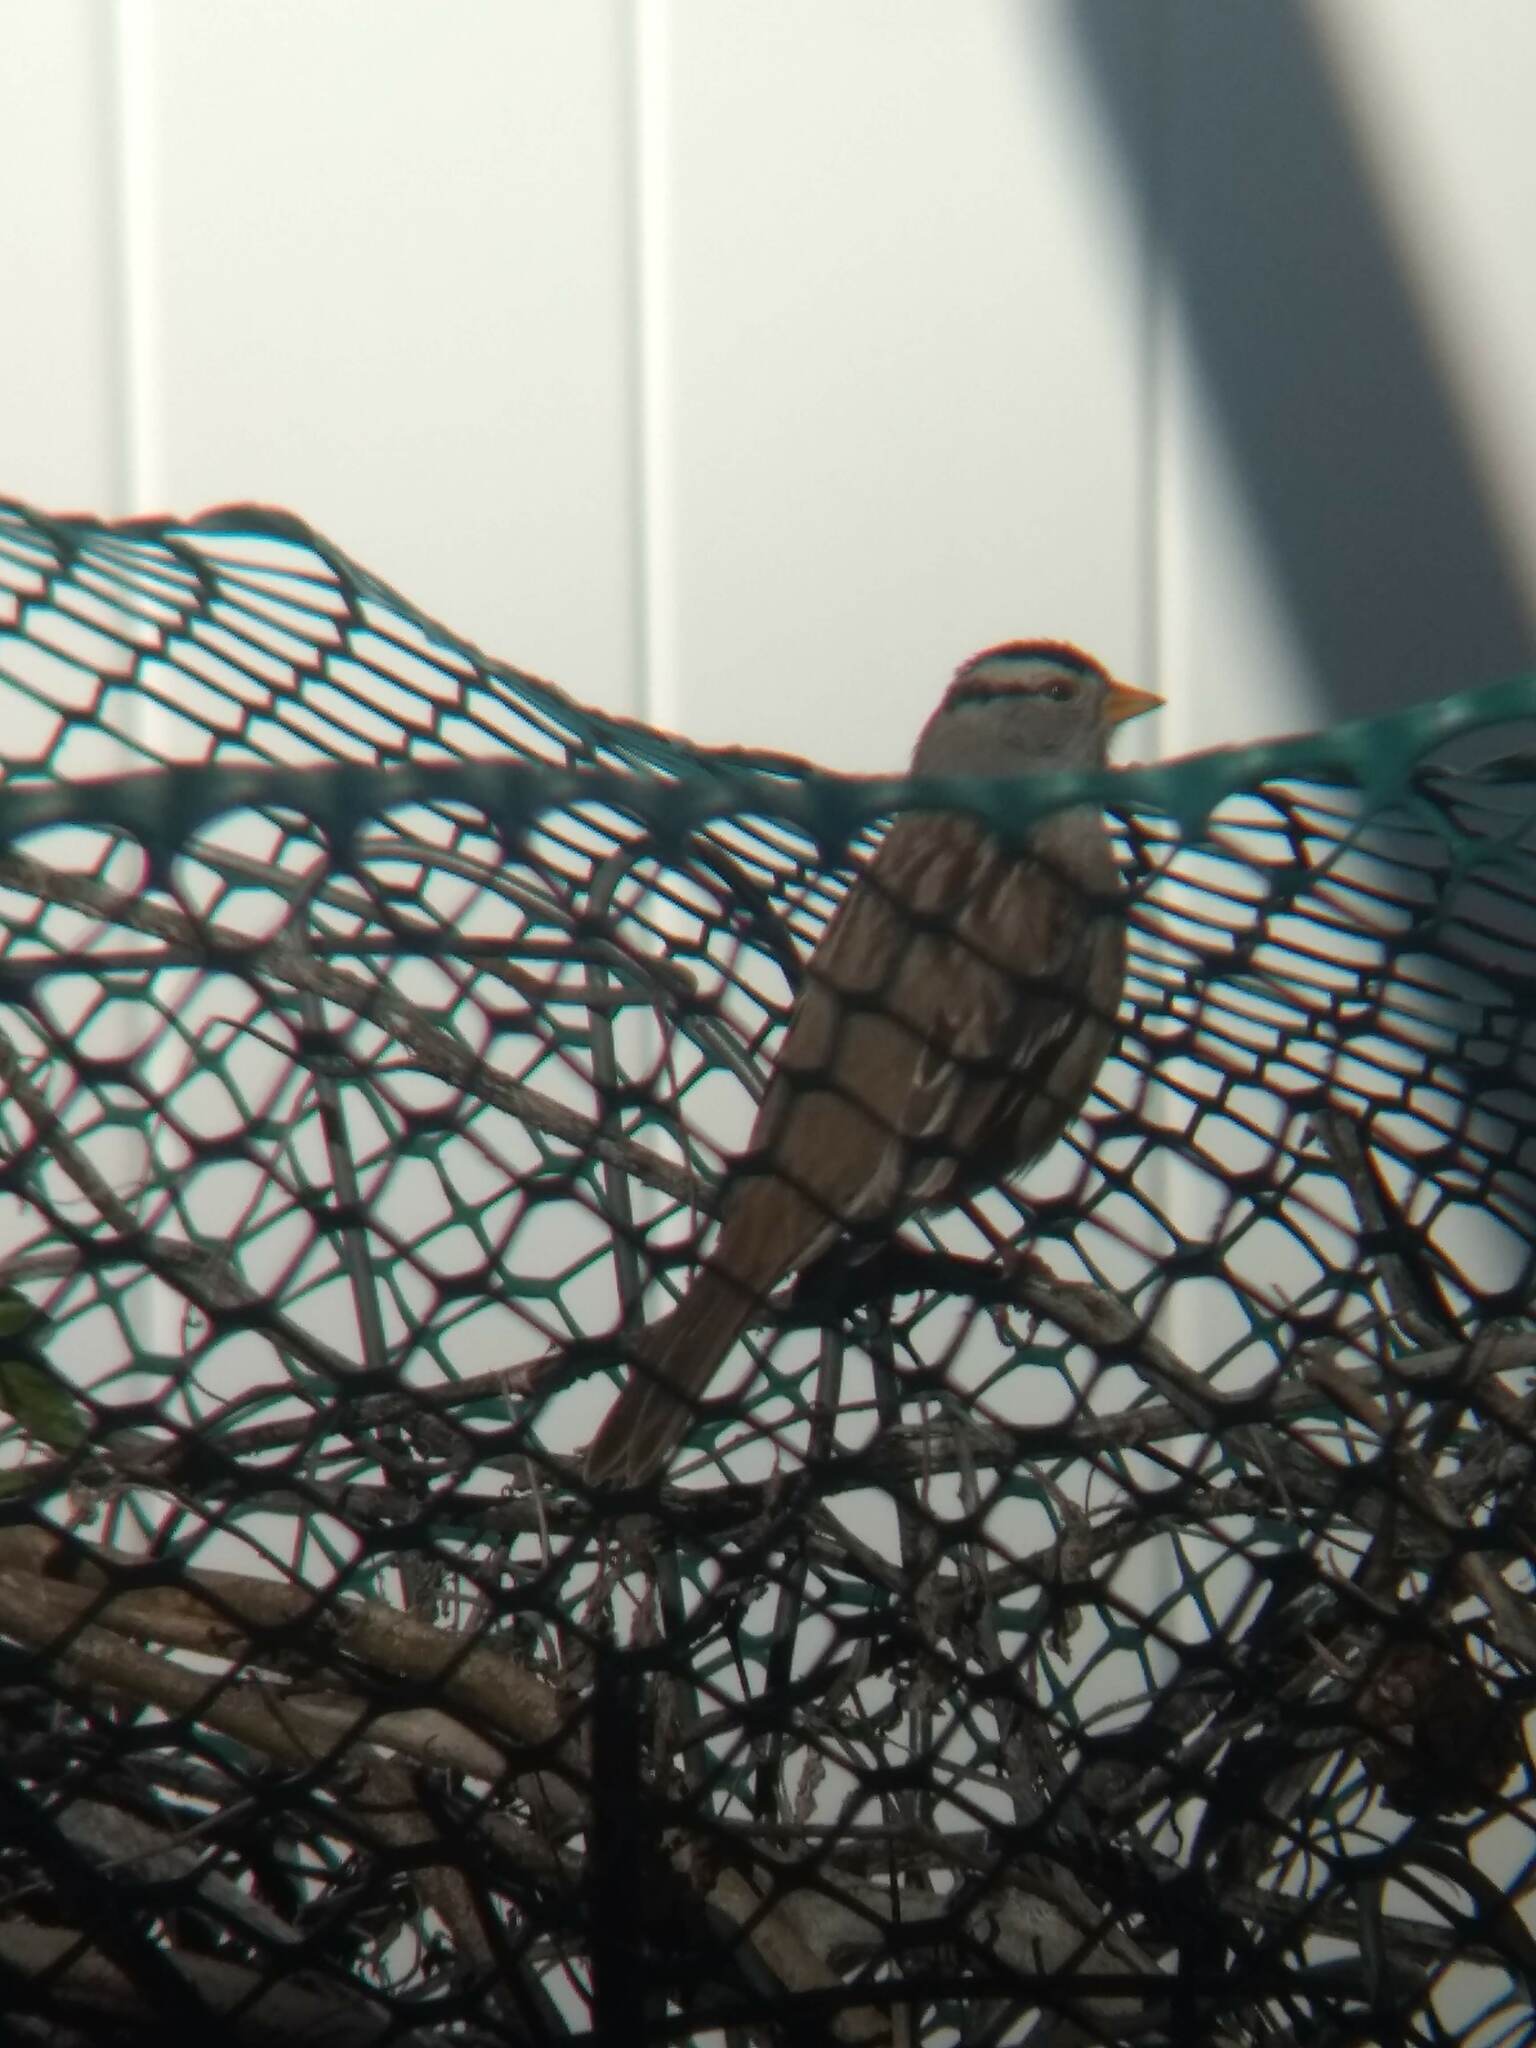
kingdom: Animalia
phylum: Chordata
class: Aves
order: Passeriformes
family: Passerellidae
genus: Zonotrichia
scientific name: Zonotrichia leucophrys
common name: White-crowned sparrow
